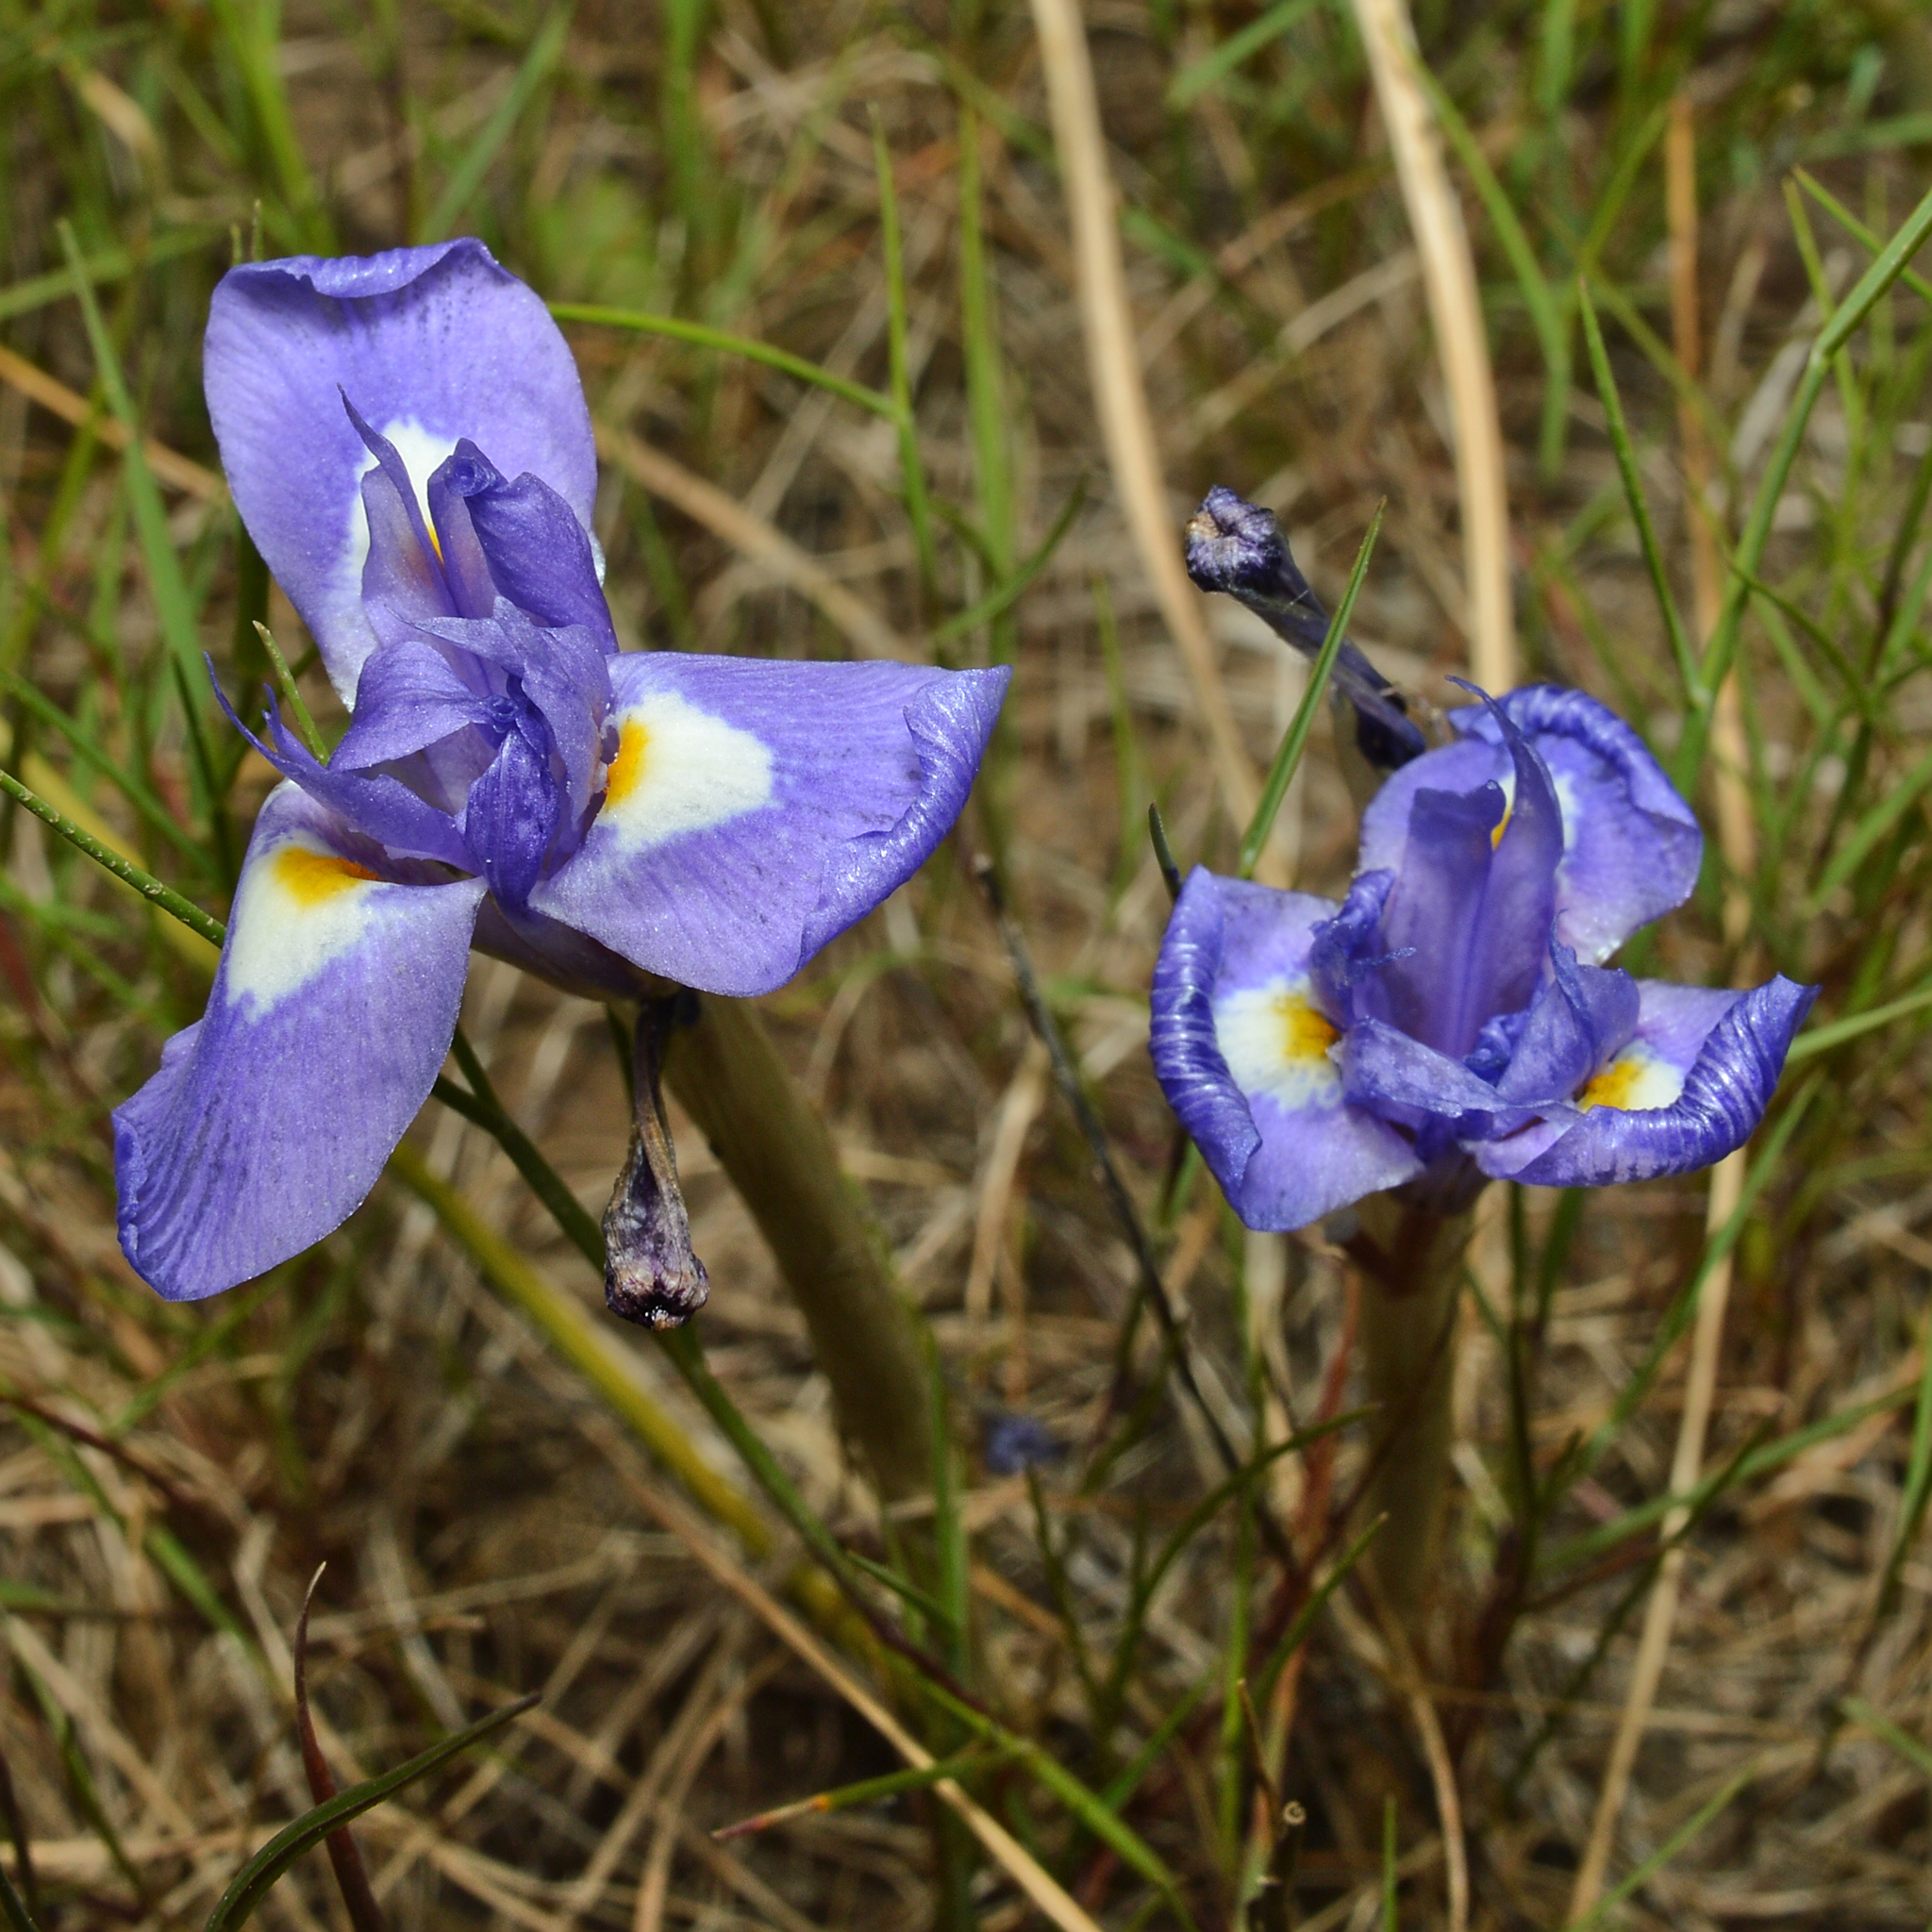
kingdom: Plantae
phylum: Tracheophyta
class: Liliopsida
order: Asparagales
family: Iridaceae
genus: Moraea
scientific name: Moraea sisyrinchium
